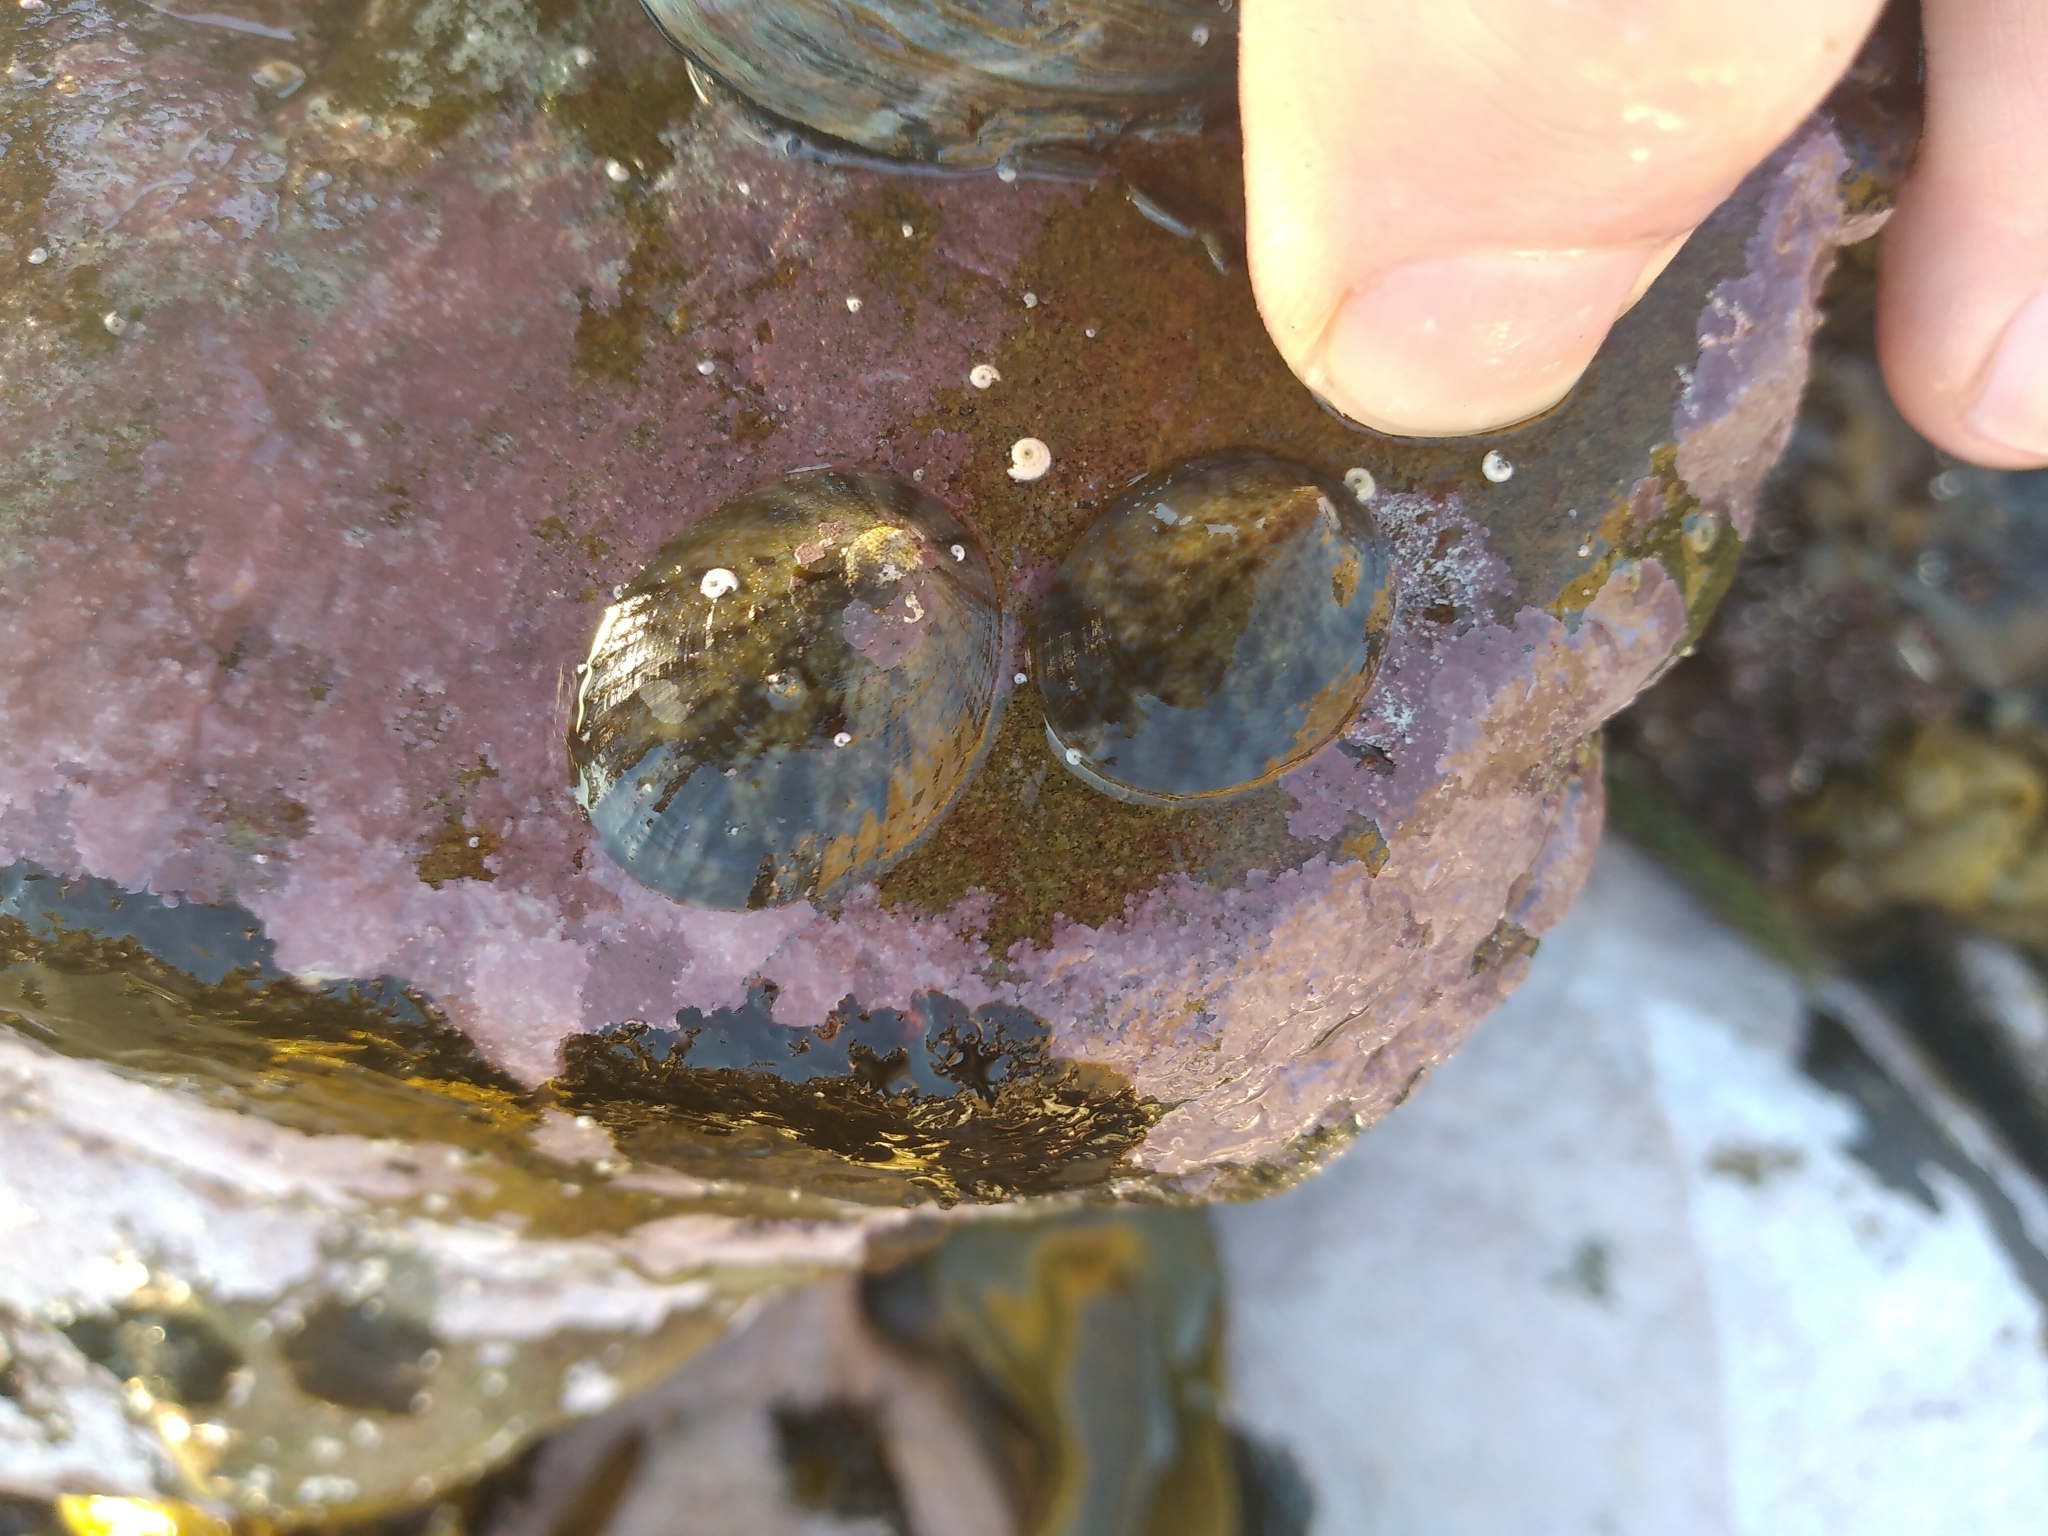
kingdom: Animalia
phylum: Mollusca
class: Gastropoda
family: Nacellidae
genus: Cellana
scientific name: Cellana radians
